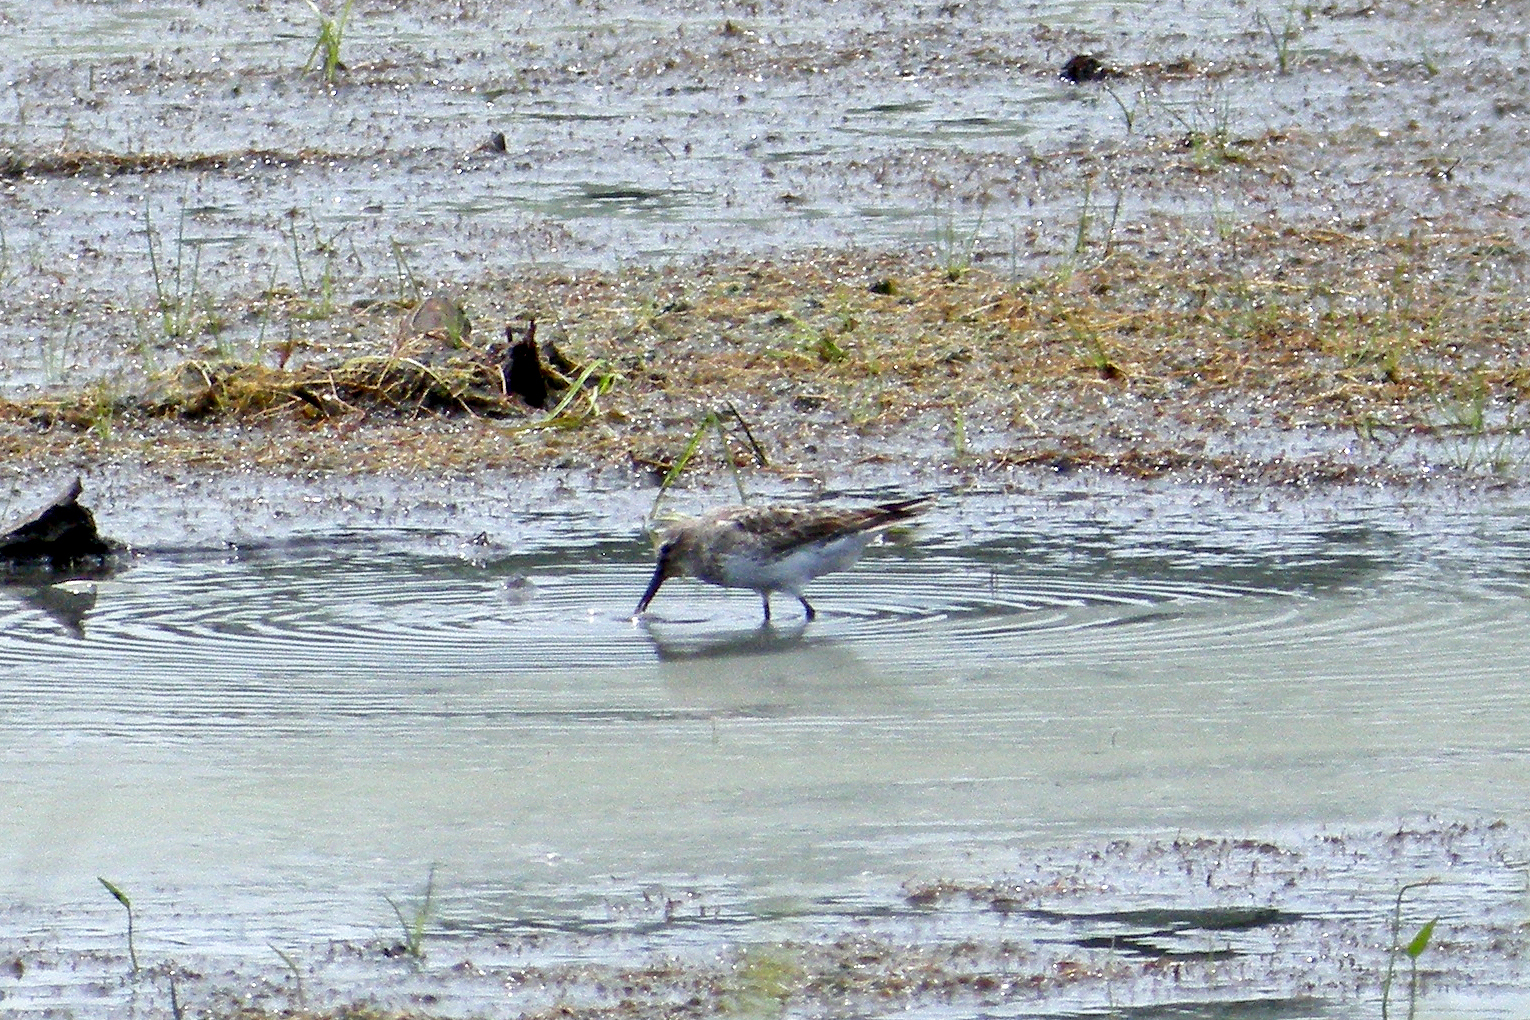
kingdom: Animalia
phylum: Chordata
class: Aves
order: Charadriiformes
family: Scolopacidae
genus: Calidris
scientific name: Calidris fuscicollis
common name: White-rumped sandpiper
